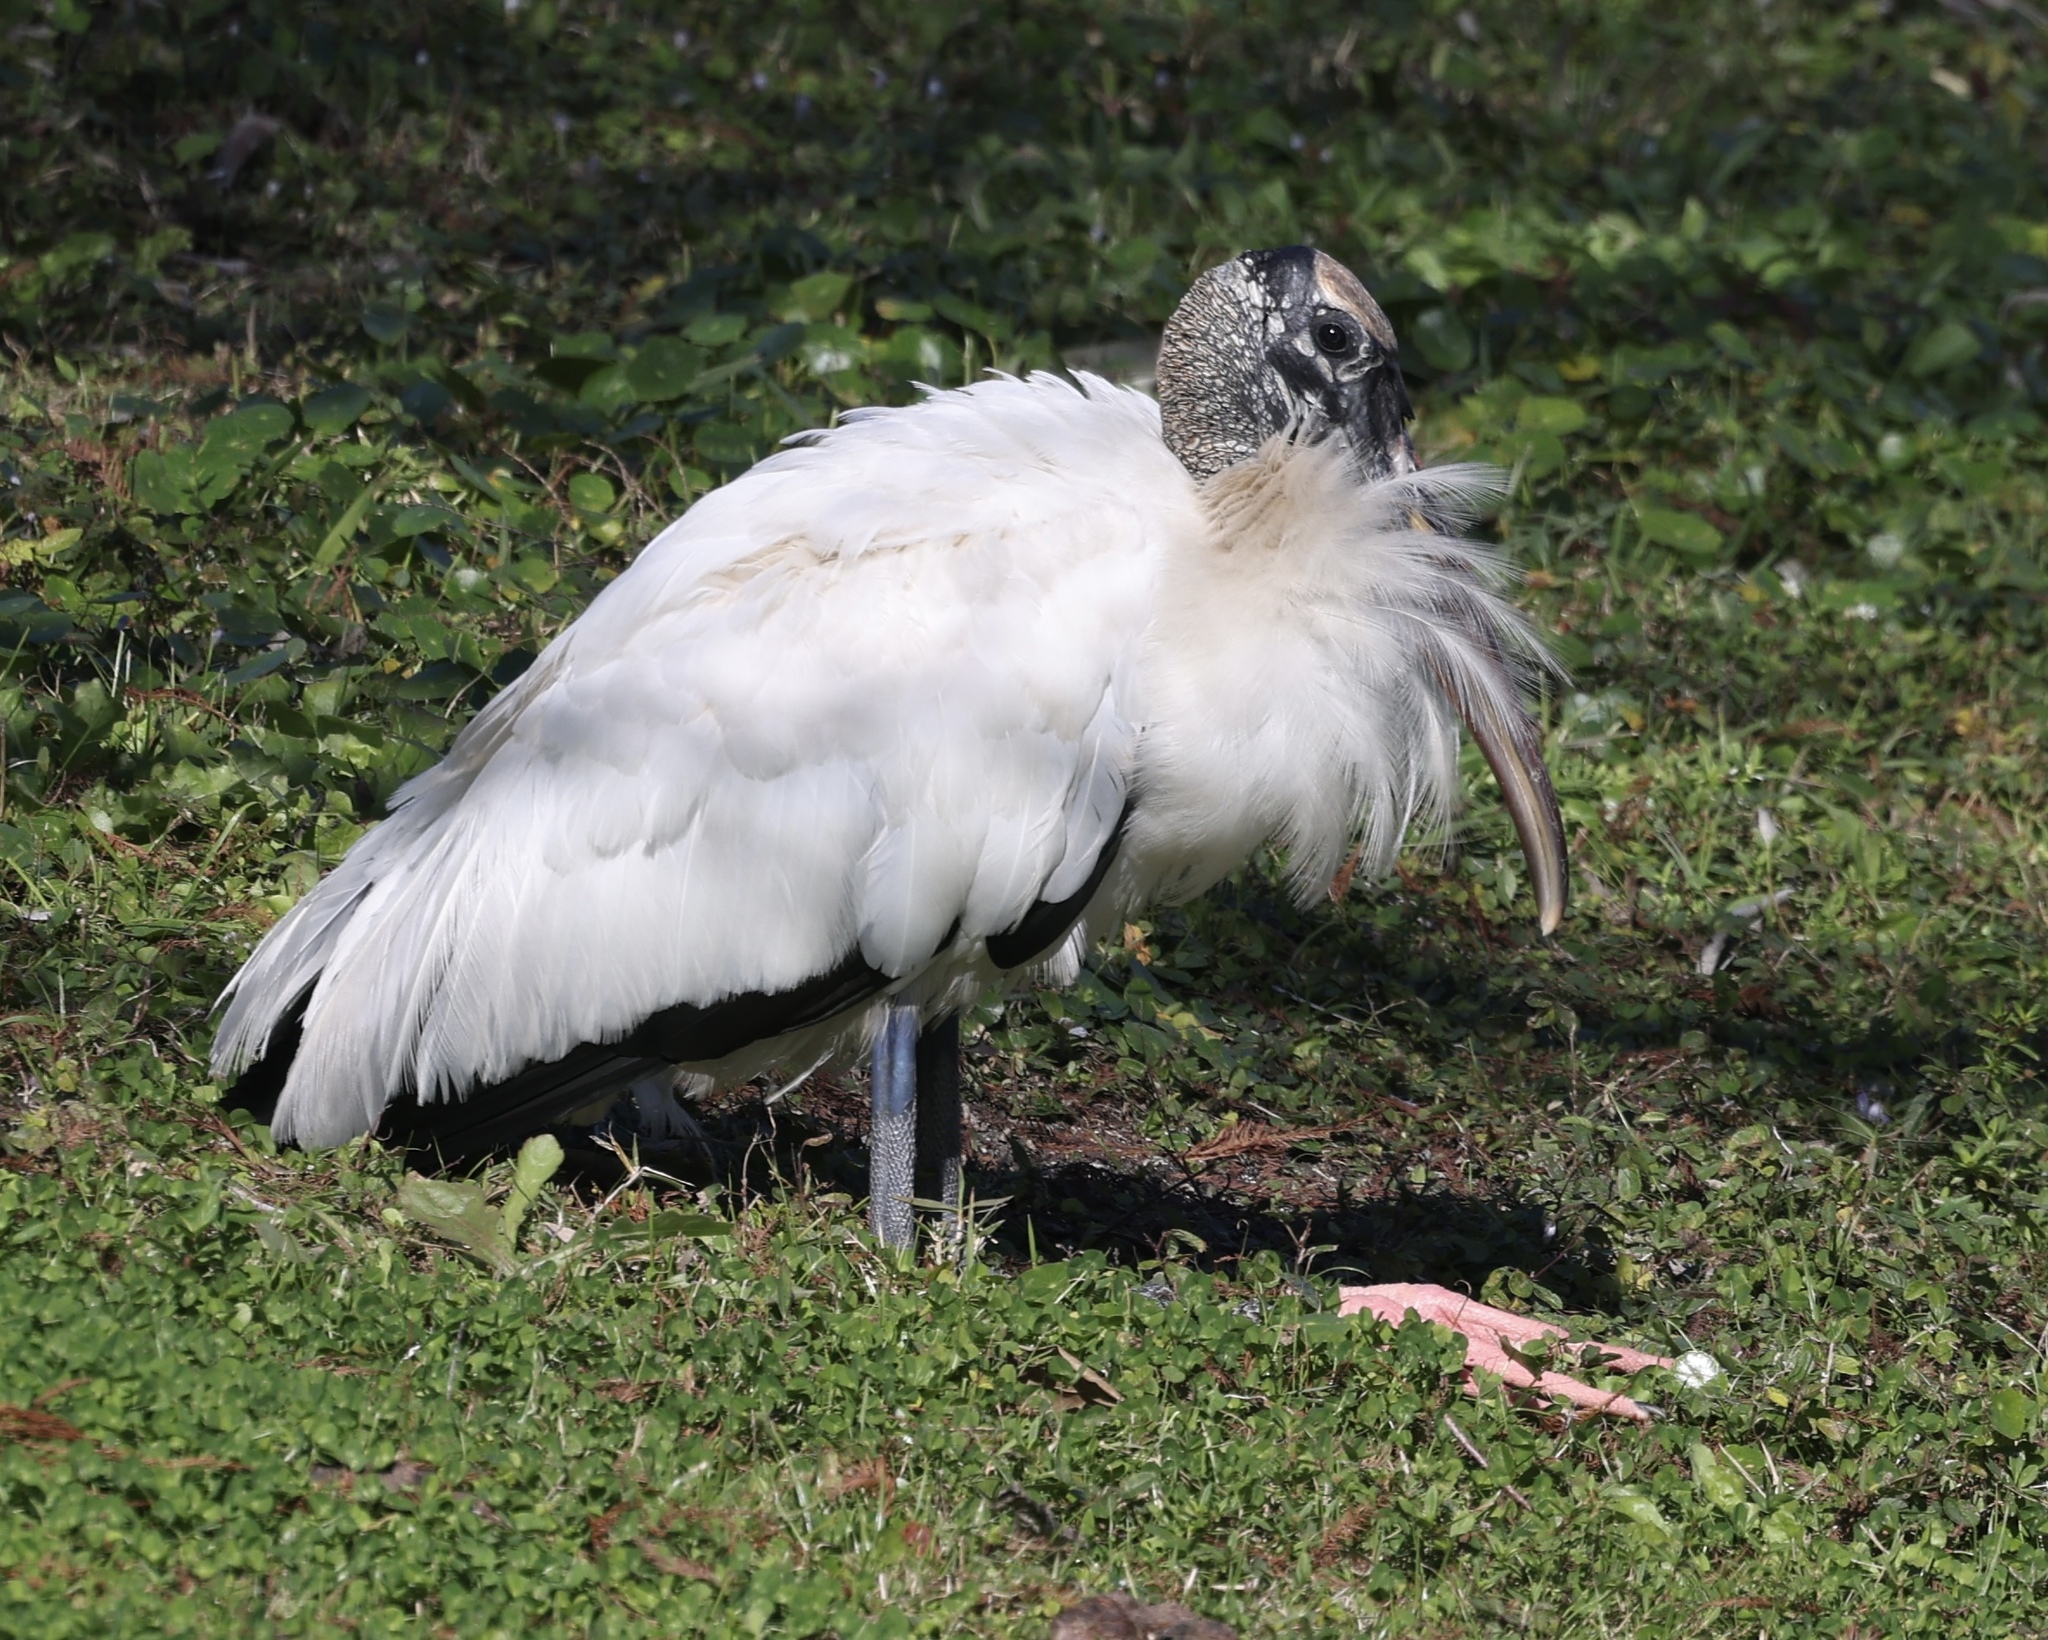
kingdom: Animalia
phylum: Chordata
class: Aves
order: Ciconiiformes
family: Ciconiidae
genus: Mycteria
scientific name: Mycteria americana
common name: Wood stork
